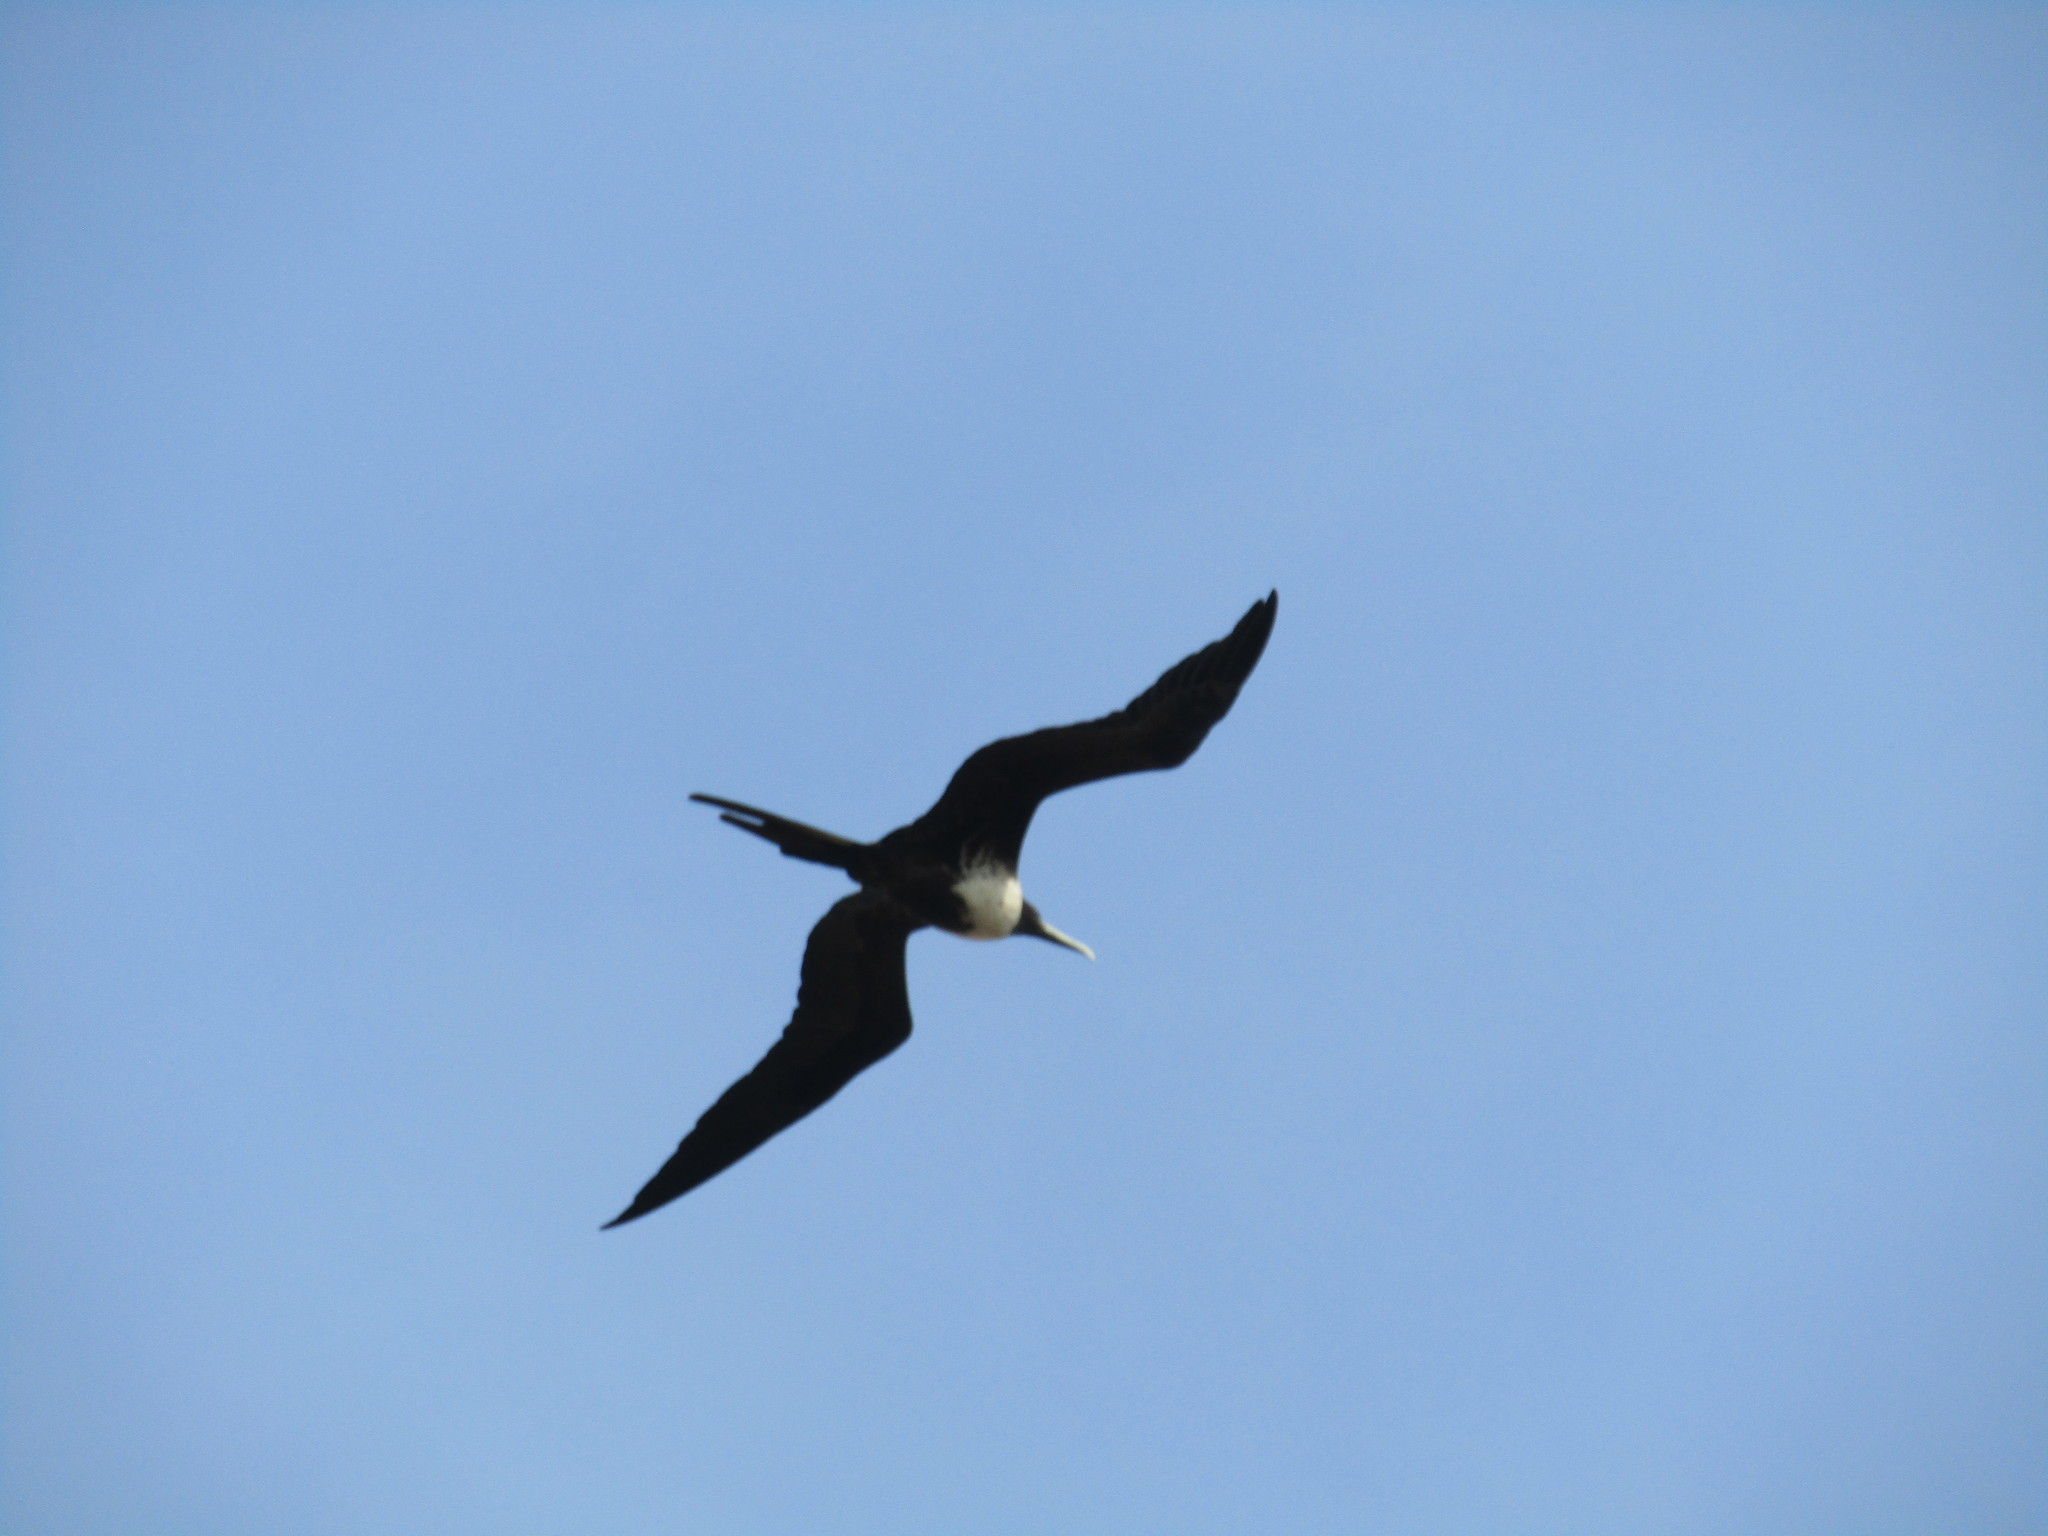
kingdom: Animalia
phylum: Chordata
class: Aves
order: Suliformes
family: Fregatidae
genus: Fregata
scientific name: Fregata magnificens
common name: Magnificent frigatebird
